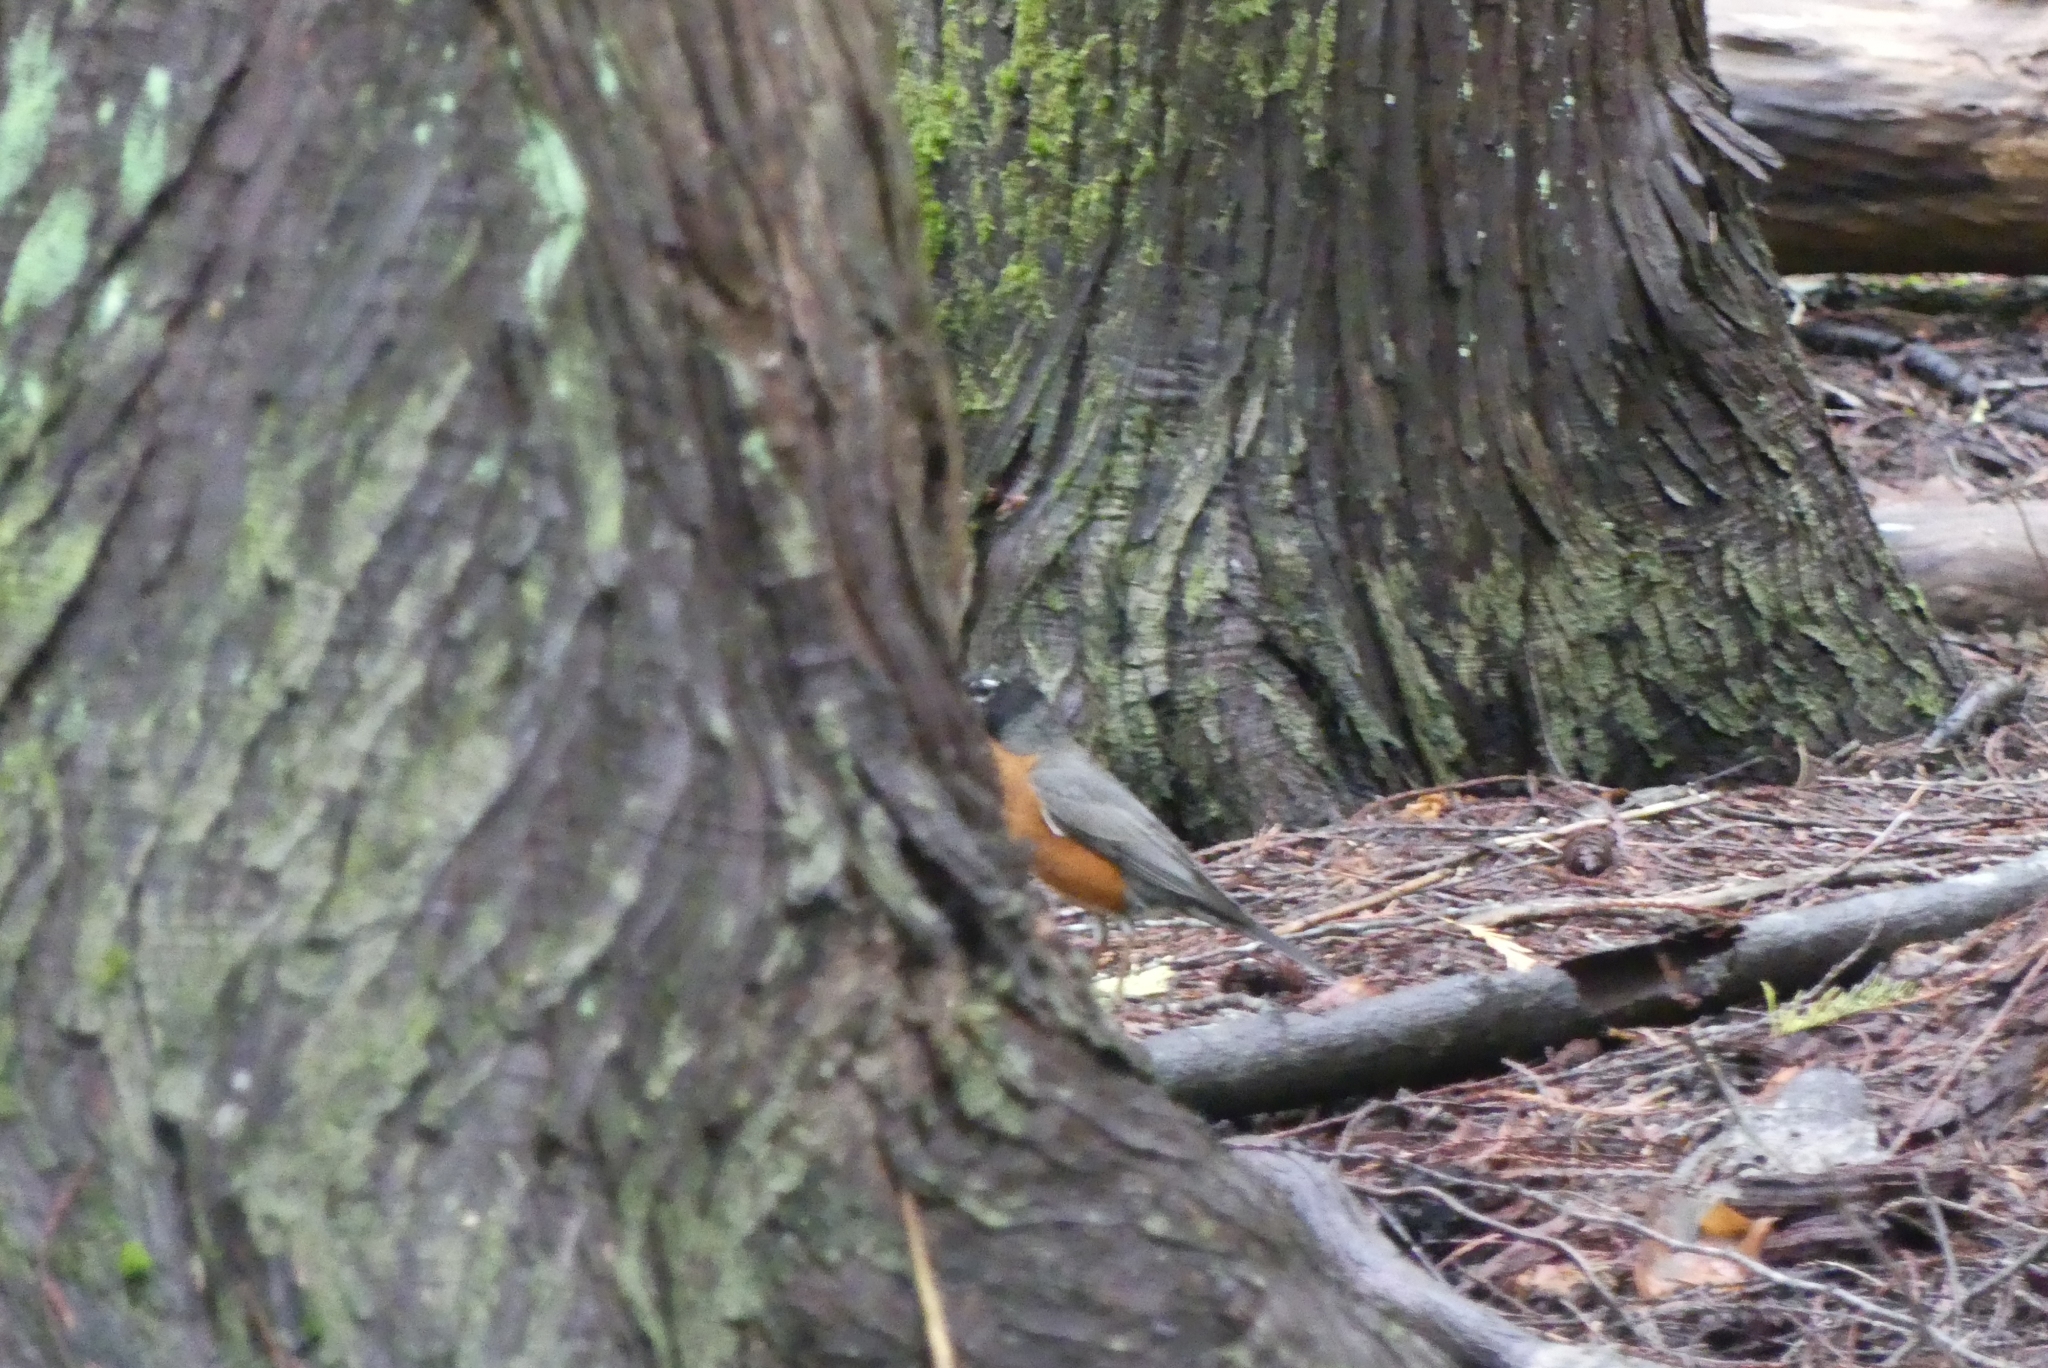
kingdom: Animalia
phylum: Chordata
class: Aves
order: Passeriformes
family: Turdidae
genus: Turdus
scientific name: Turdus migratorius
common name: American robin
